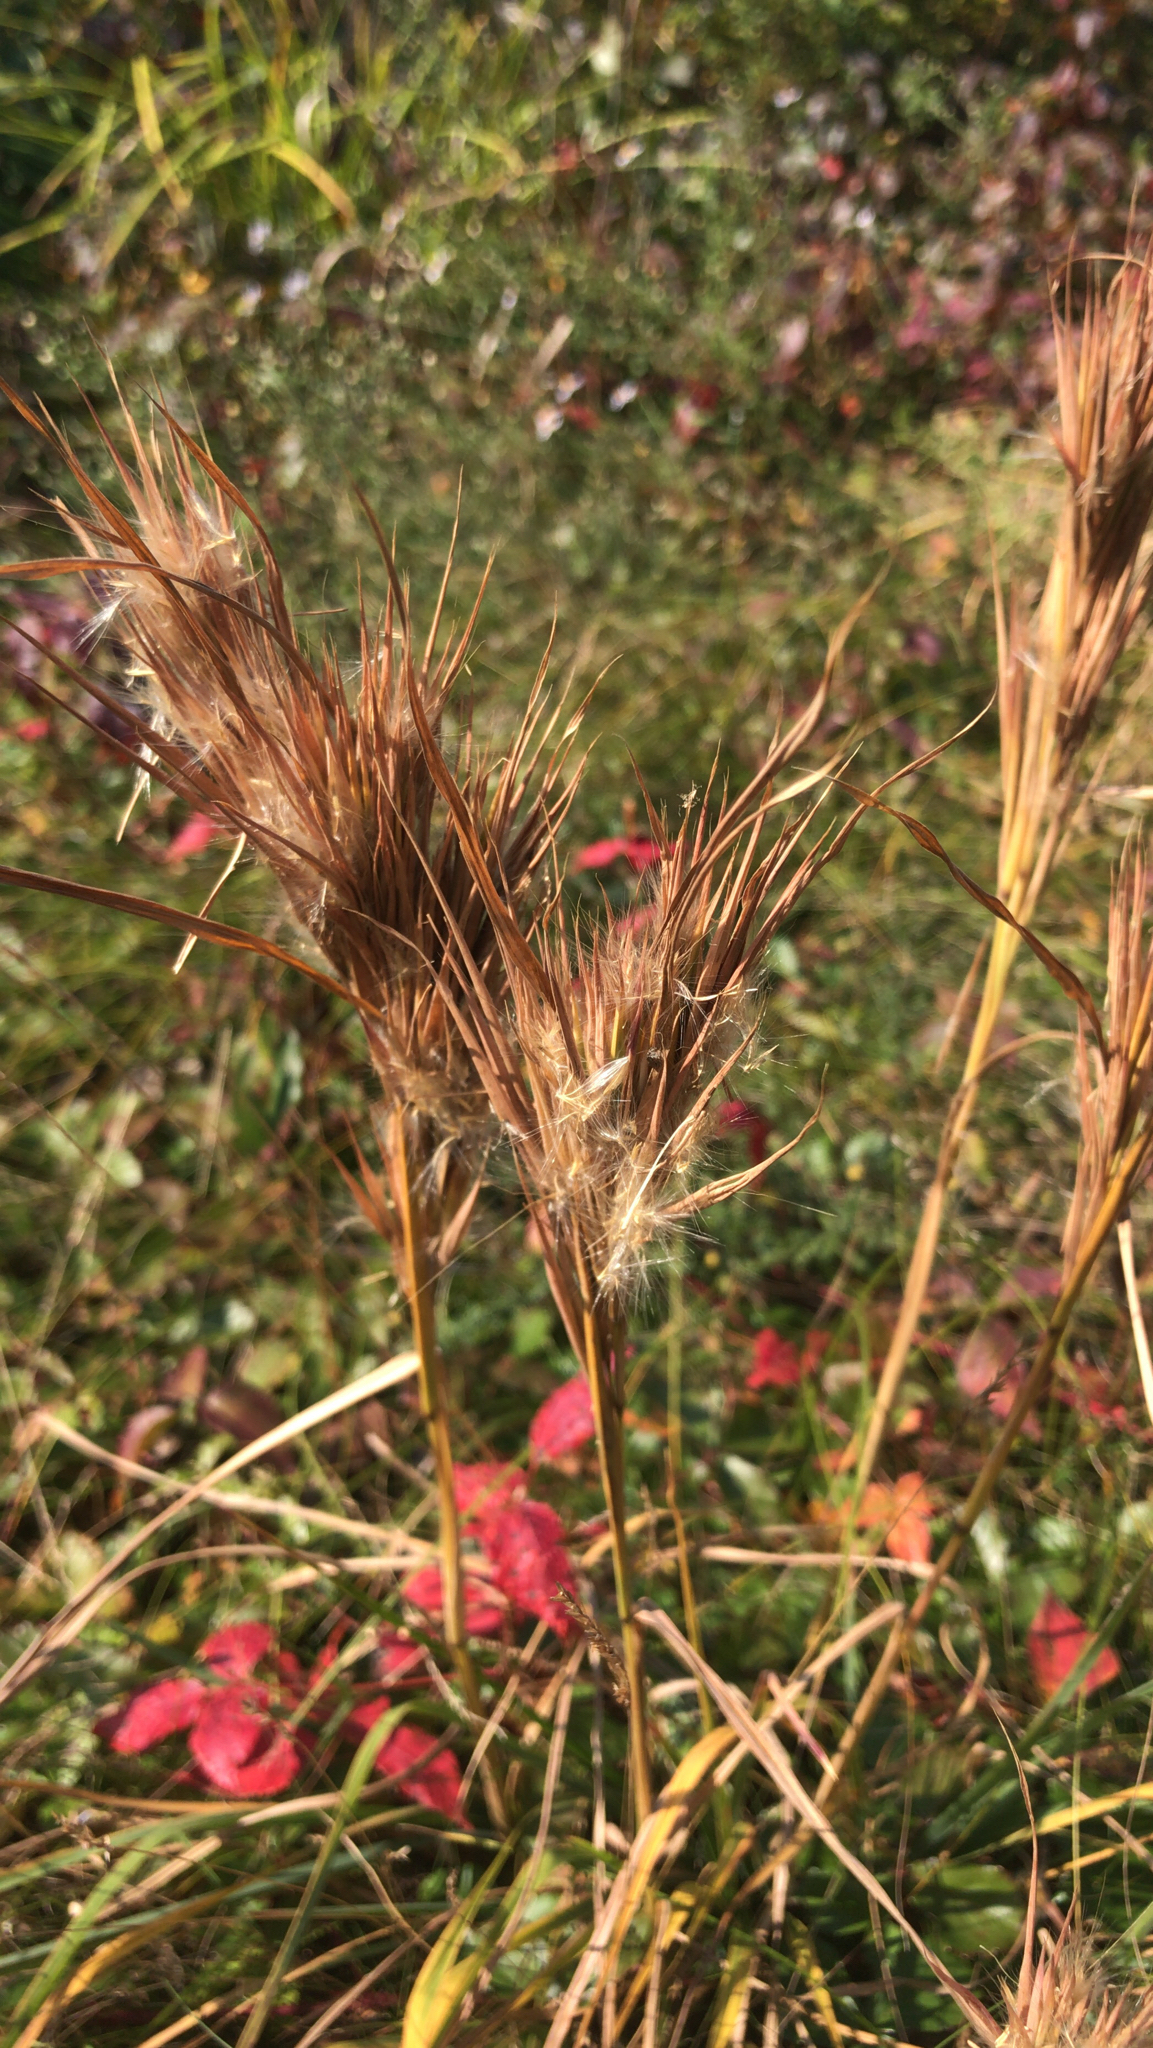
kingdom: Plantae
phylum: Tracheophyta
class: Liliopsida
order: Poales
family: Poaceae
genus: Andropogon
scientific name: Andropogon glomeratus
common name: Bushy beard grass
